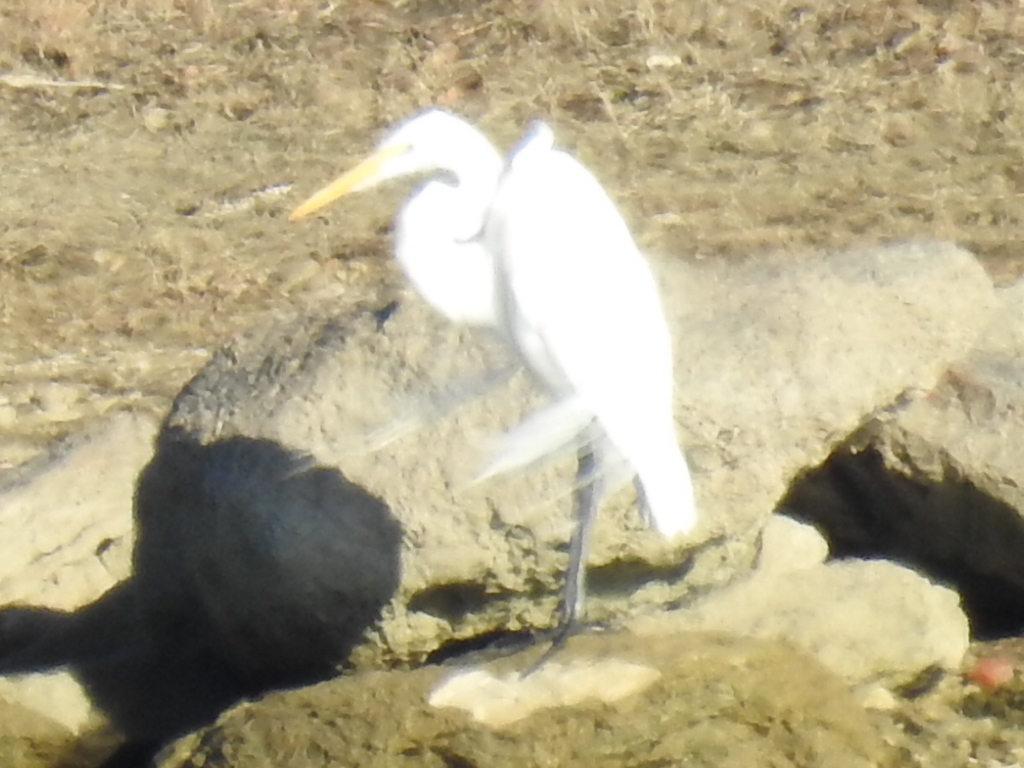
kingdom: Animalia
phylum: Chordata
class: Aves
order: Pelecaniformes
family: Ardeidae
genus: Ardea
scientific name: Ardea alba
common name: Great egret
